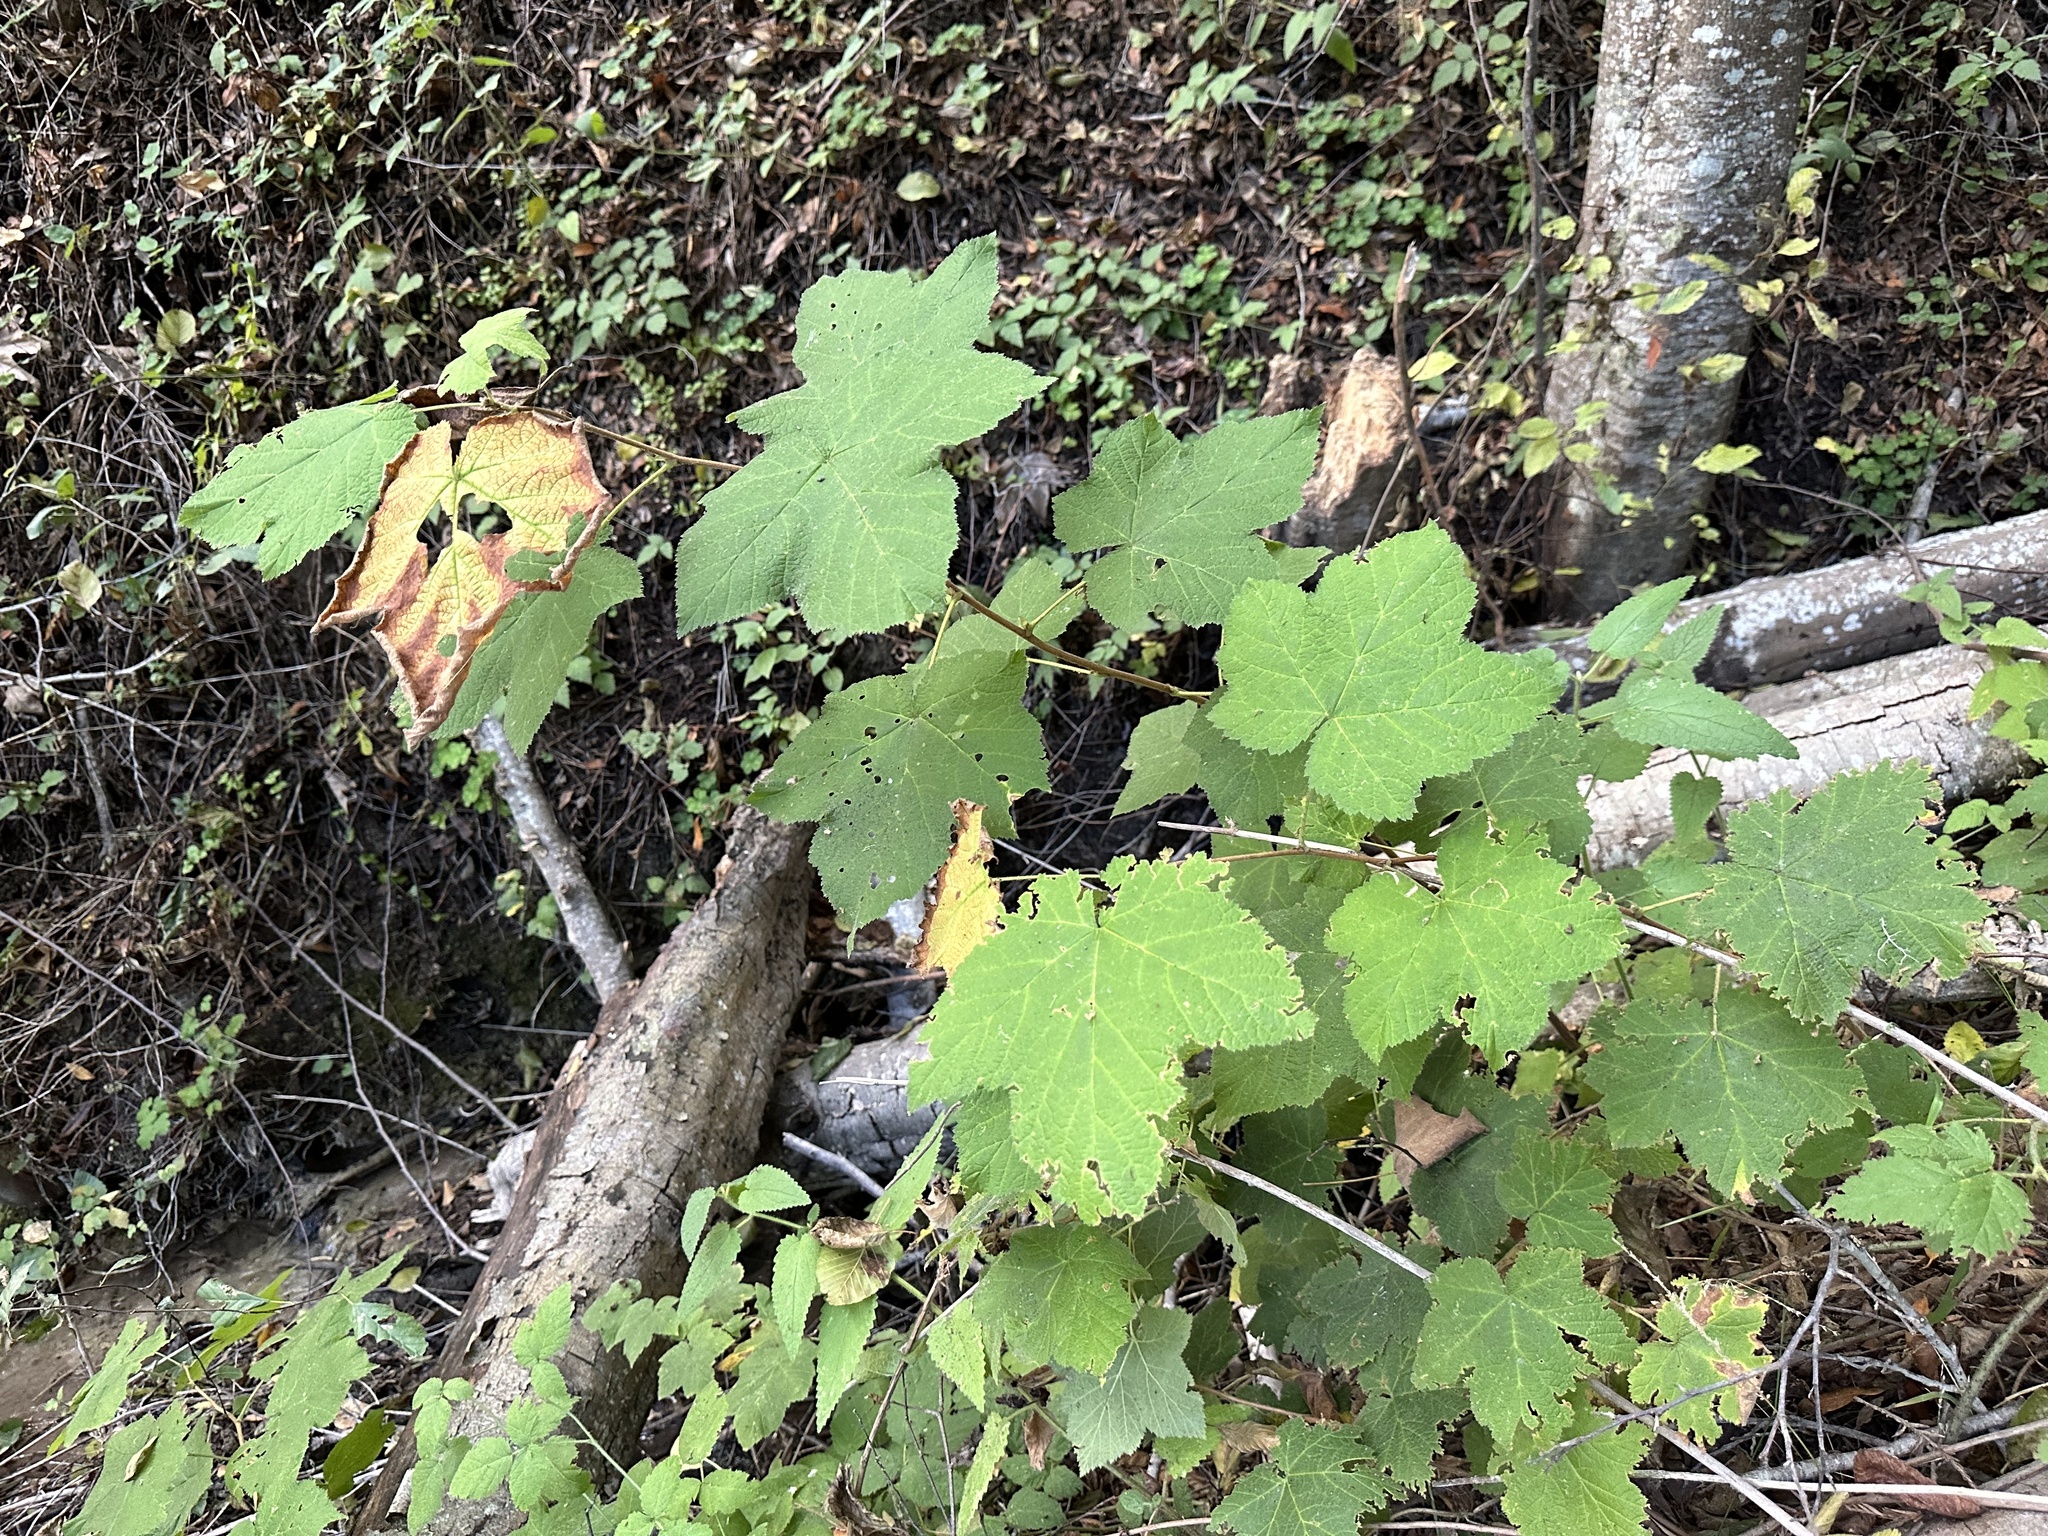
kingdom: Plantae
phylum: Tracheophyta
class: Magnoliopsida
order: Rosales
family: Rosaceae
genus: Rubus
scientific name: Rubus parviflorus
